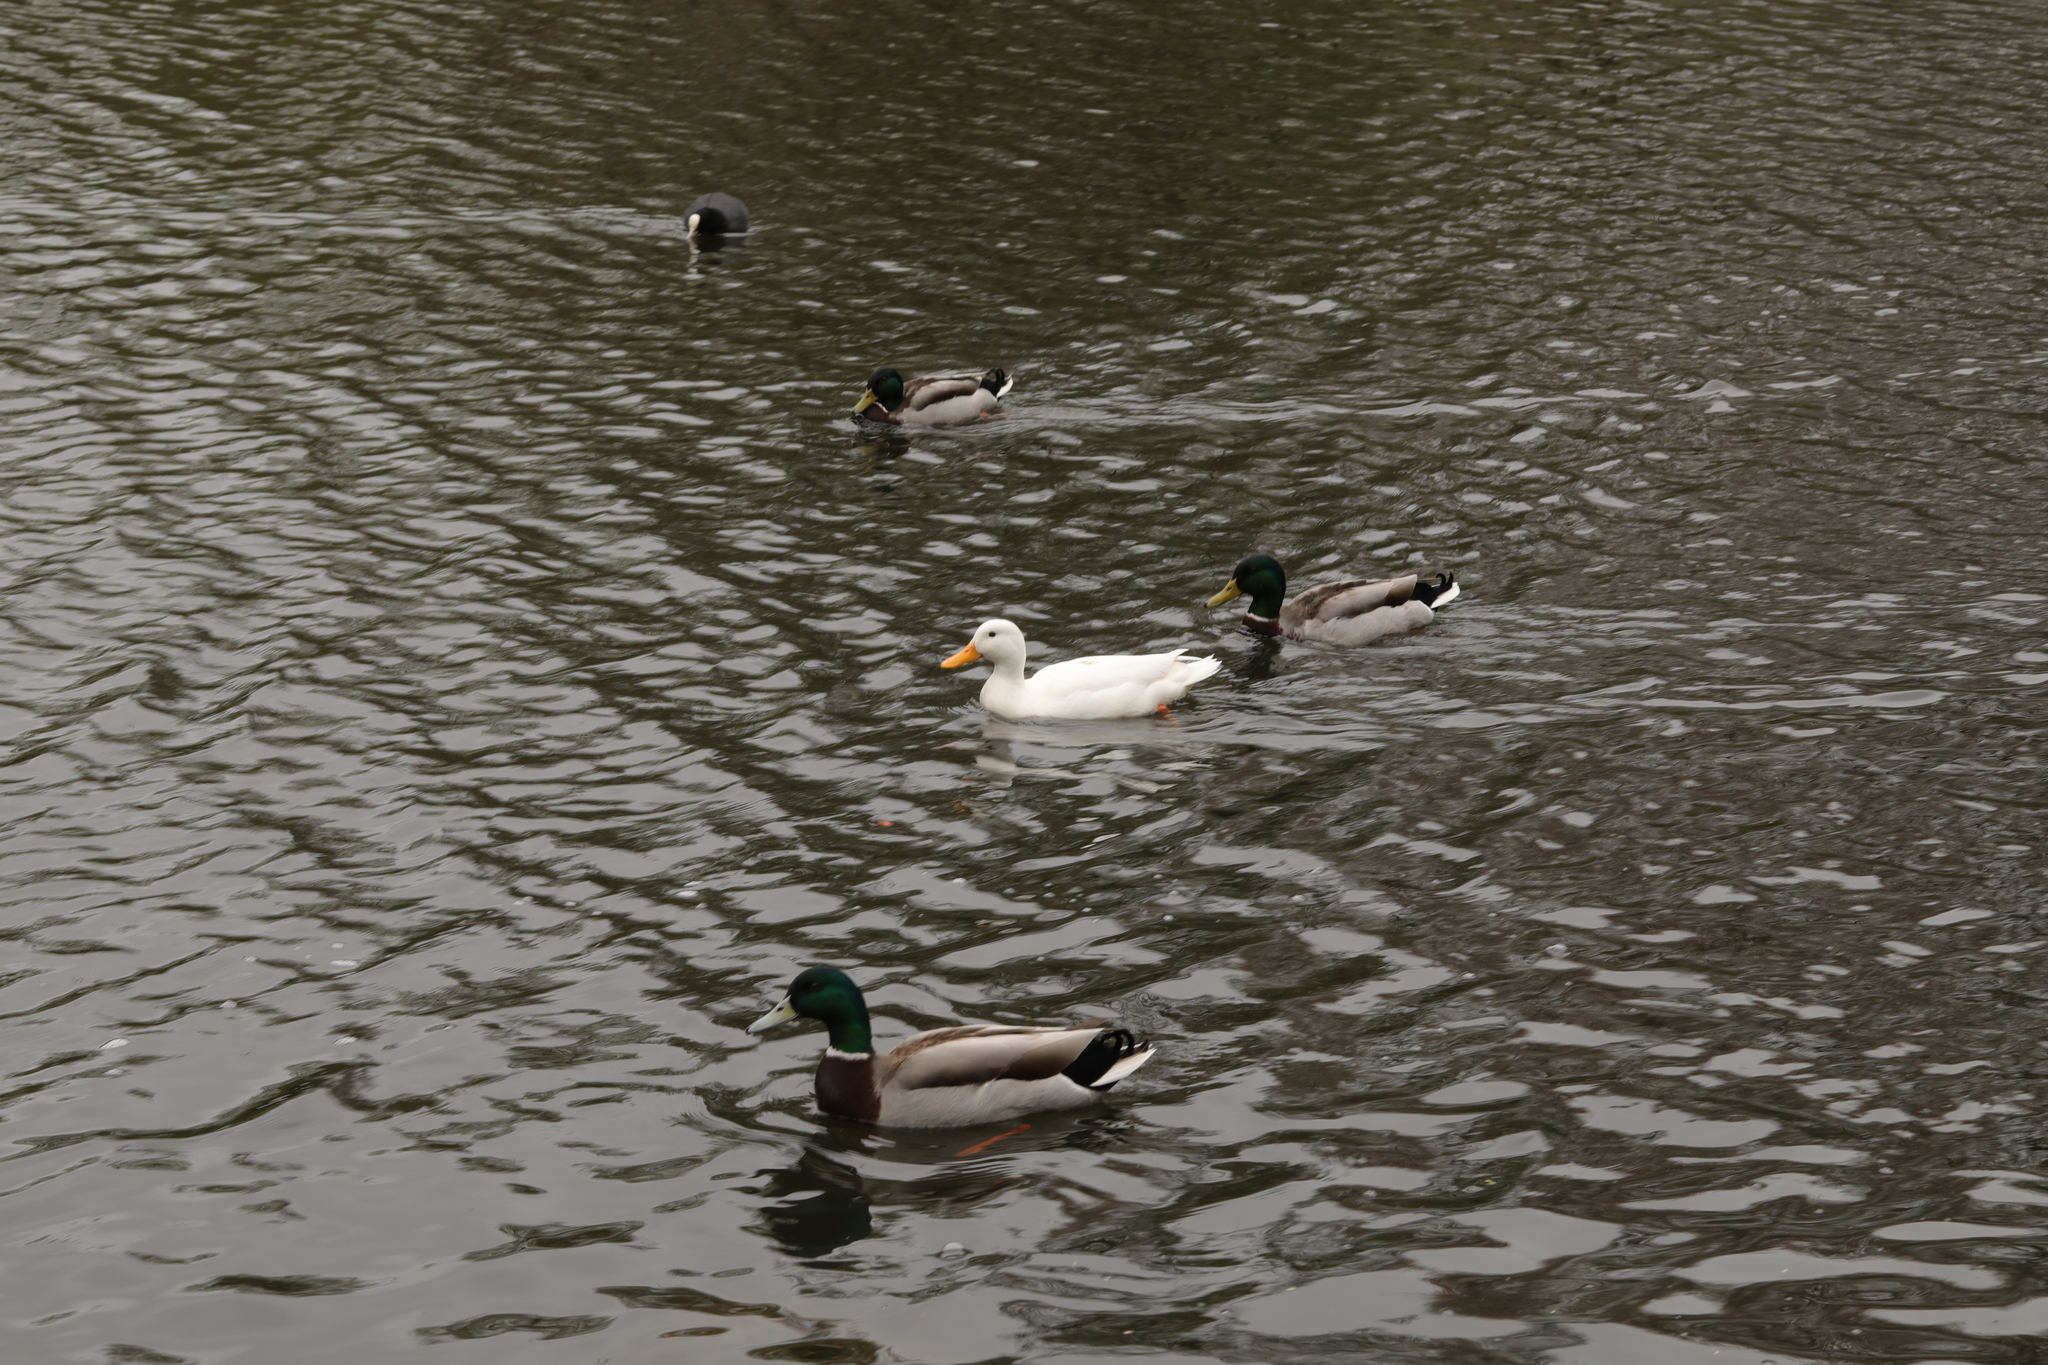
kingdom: Animalia
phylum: Chordata
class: Aves
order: Anseriformes
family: Anatidae
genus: Anas
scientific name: Anas platyrhynchos
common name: Mallard
